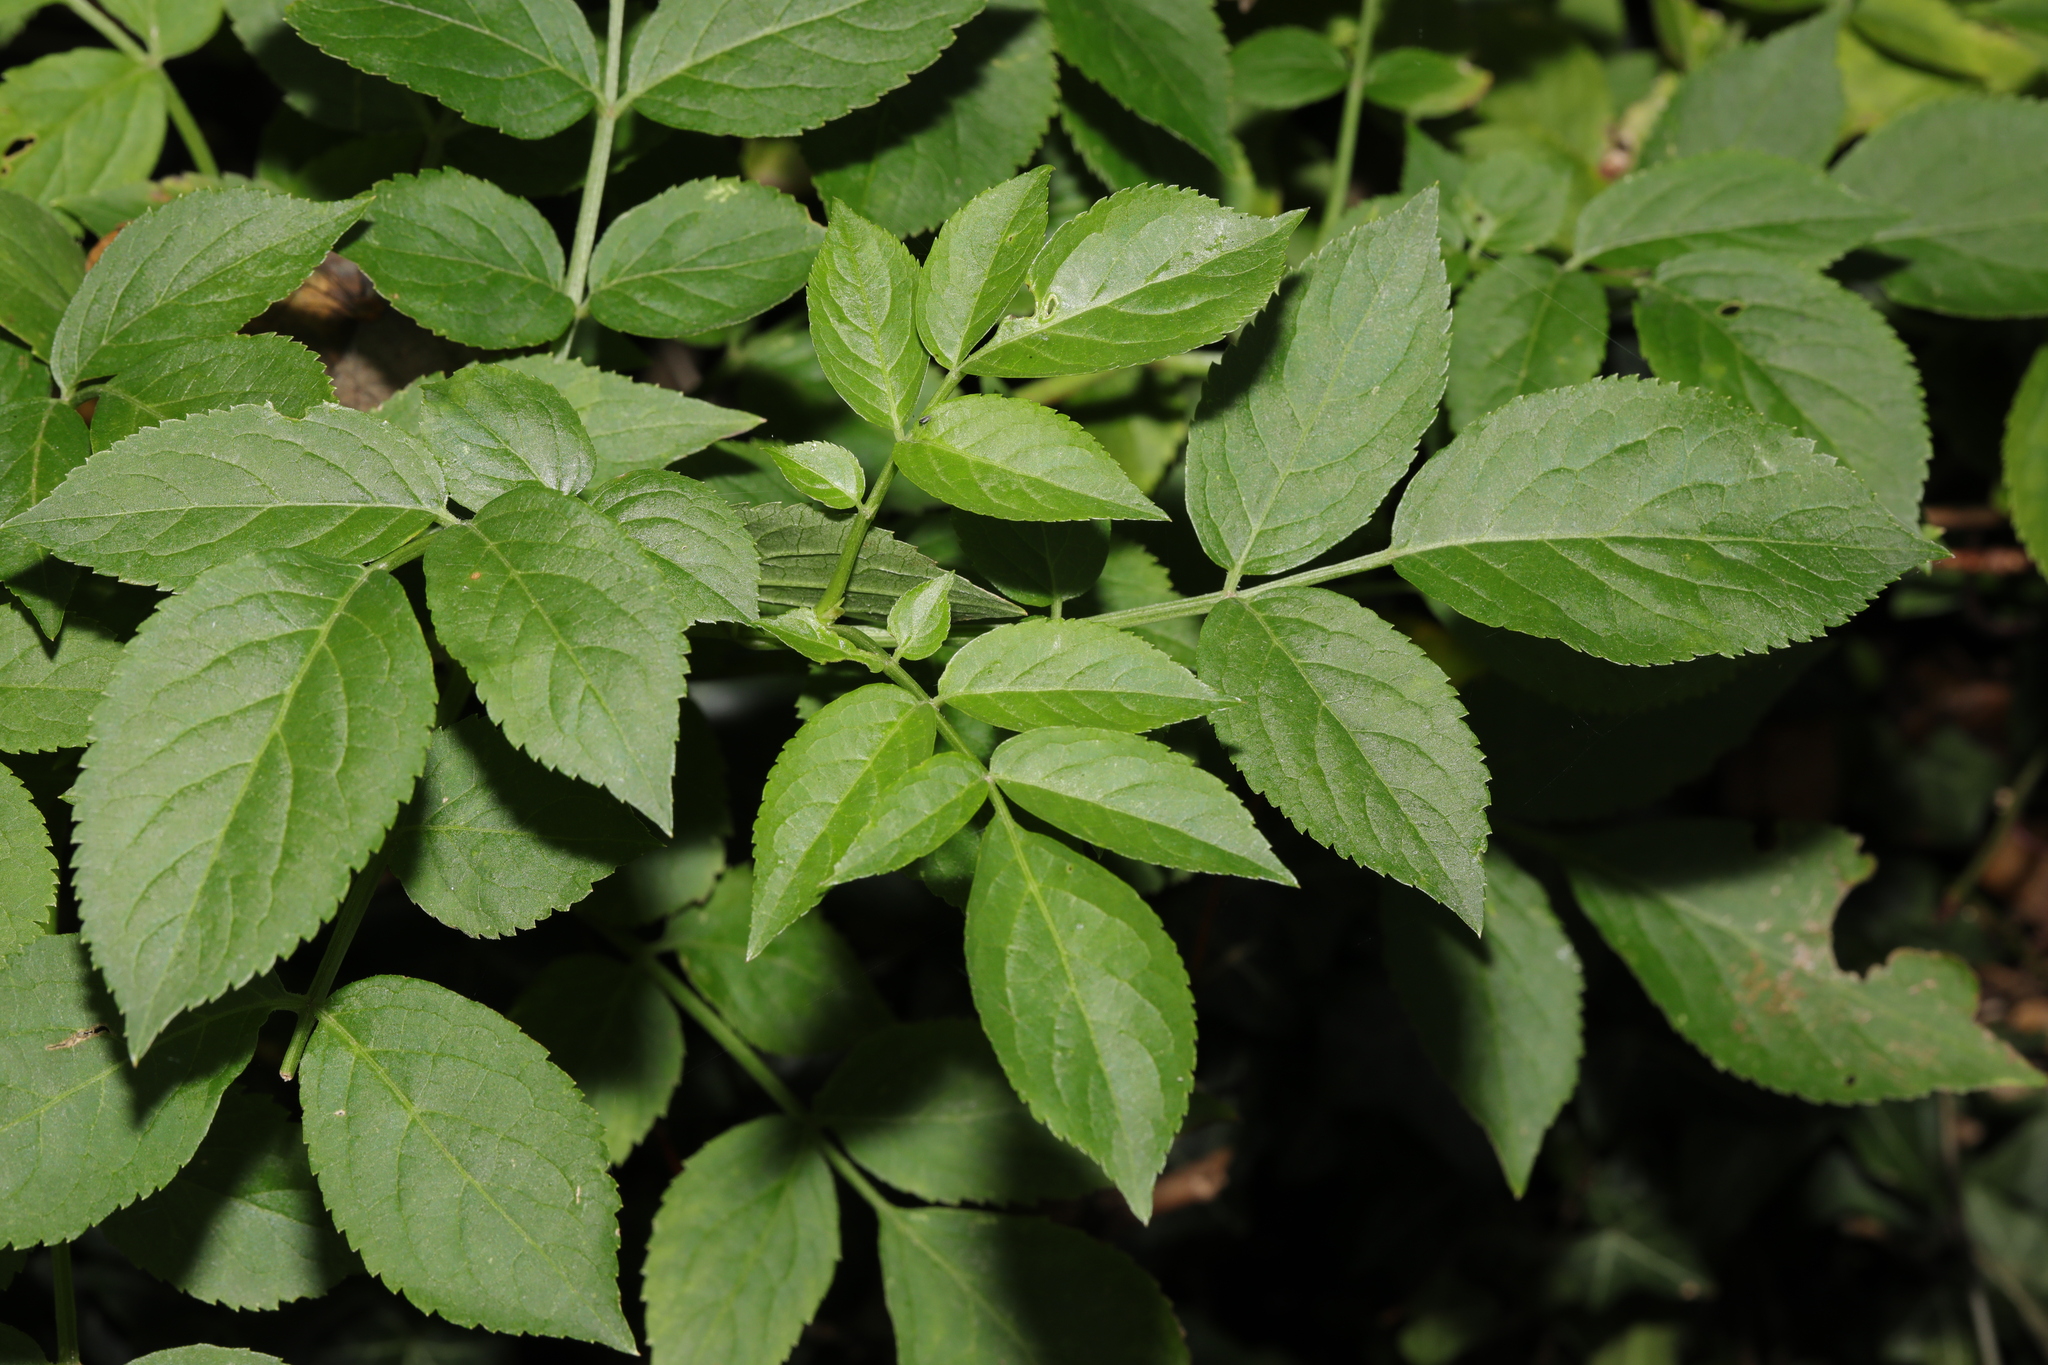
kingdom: Plantae
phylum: Tracheophyta
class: Magnoliopsida
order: Dipsacales
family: Viburnaceae
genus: Sambucus
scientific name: Sambucus nigra
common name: Elder
